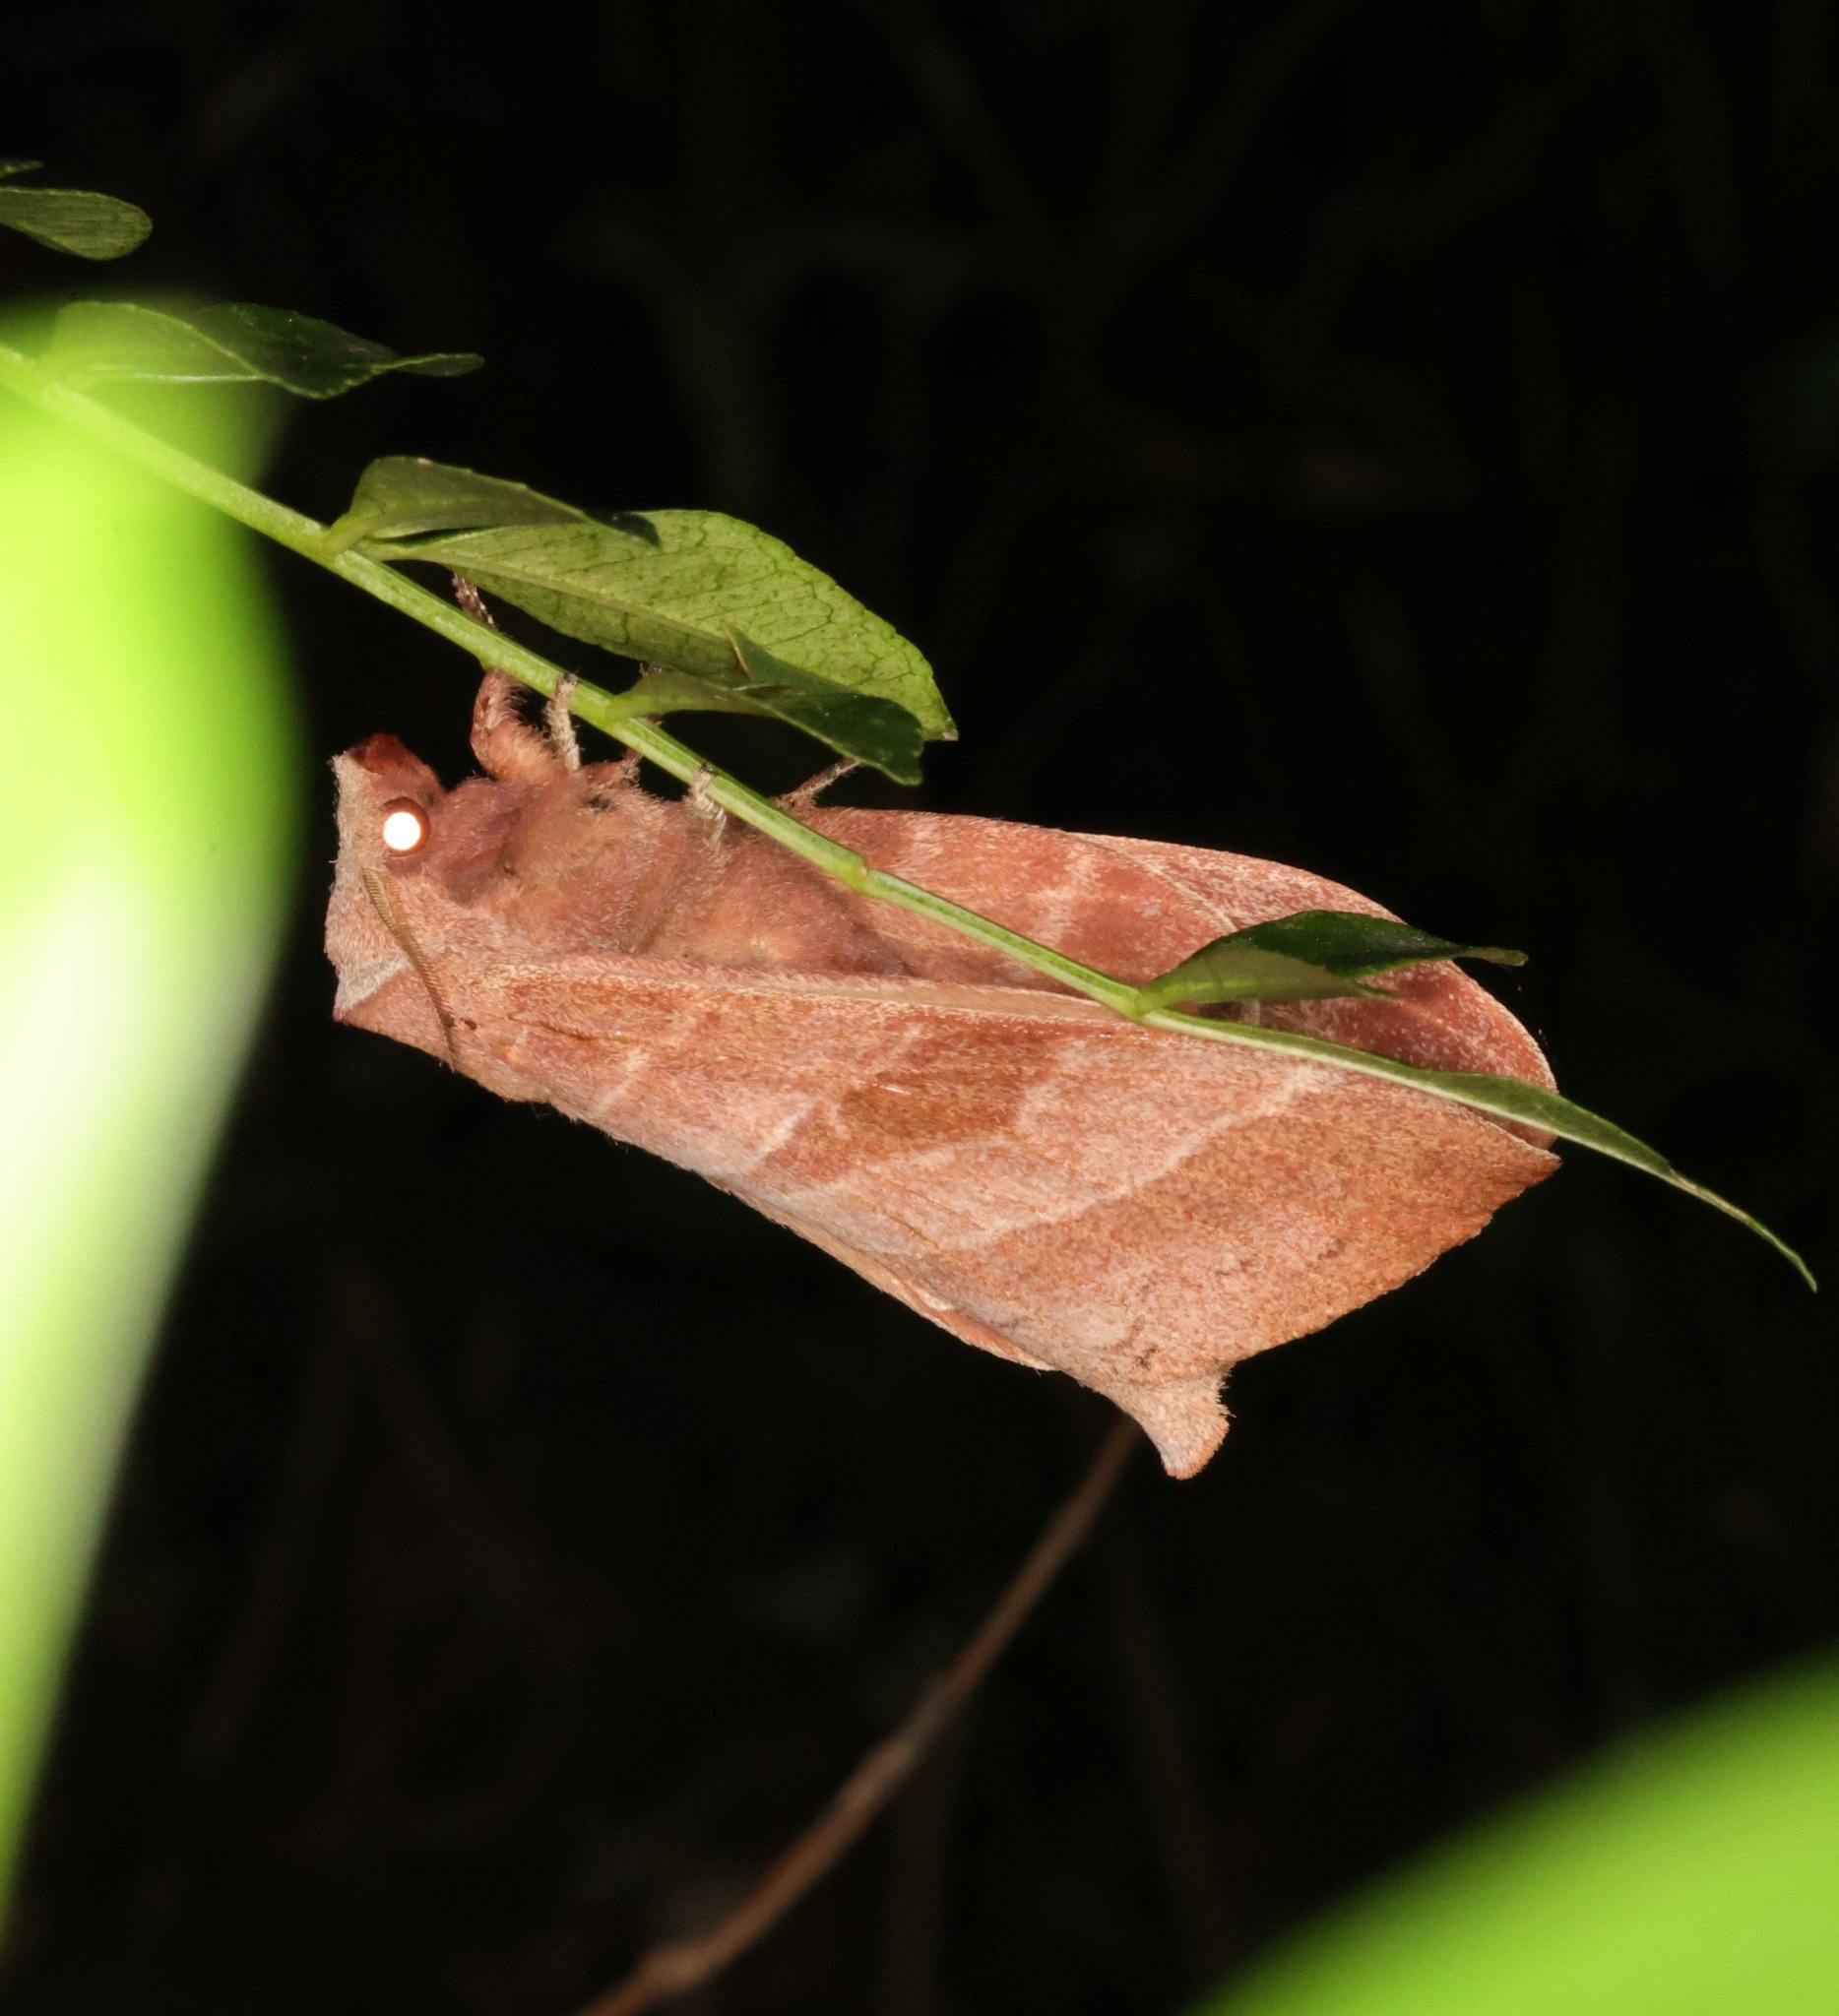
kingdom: Animalia
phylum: Arthropoda
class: Insecta
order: Lepidoptera
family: Lasiocampidae
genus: Metanastria
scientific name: Metanastria gemella
